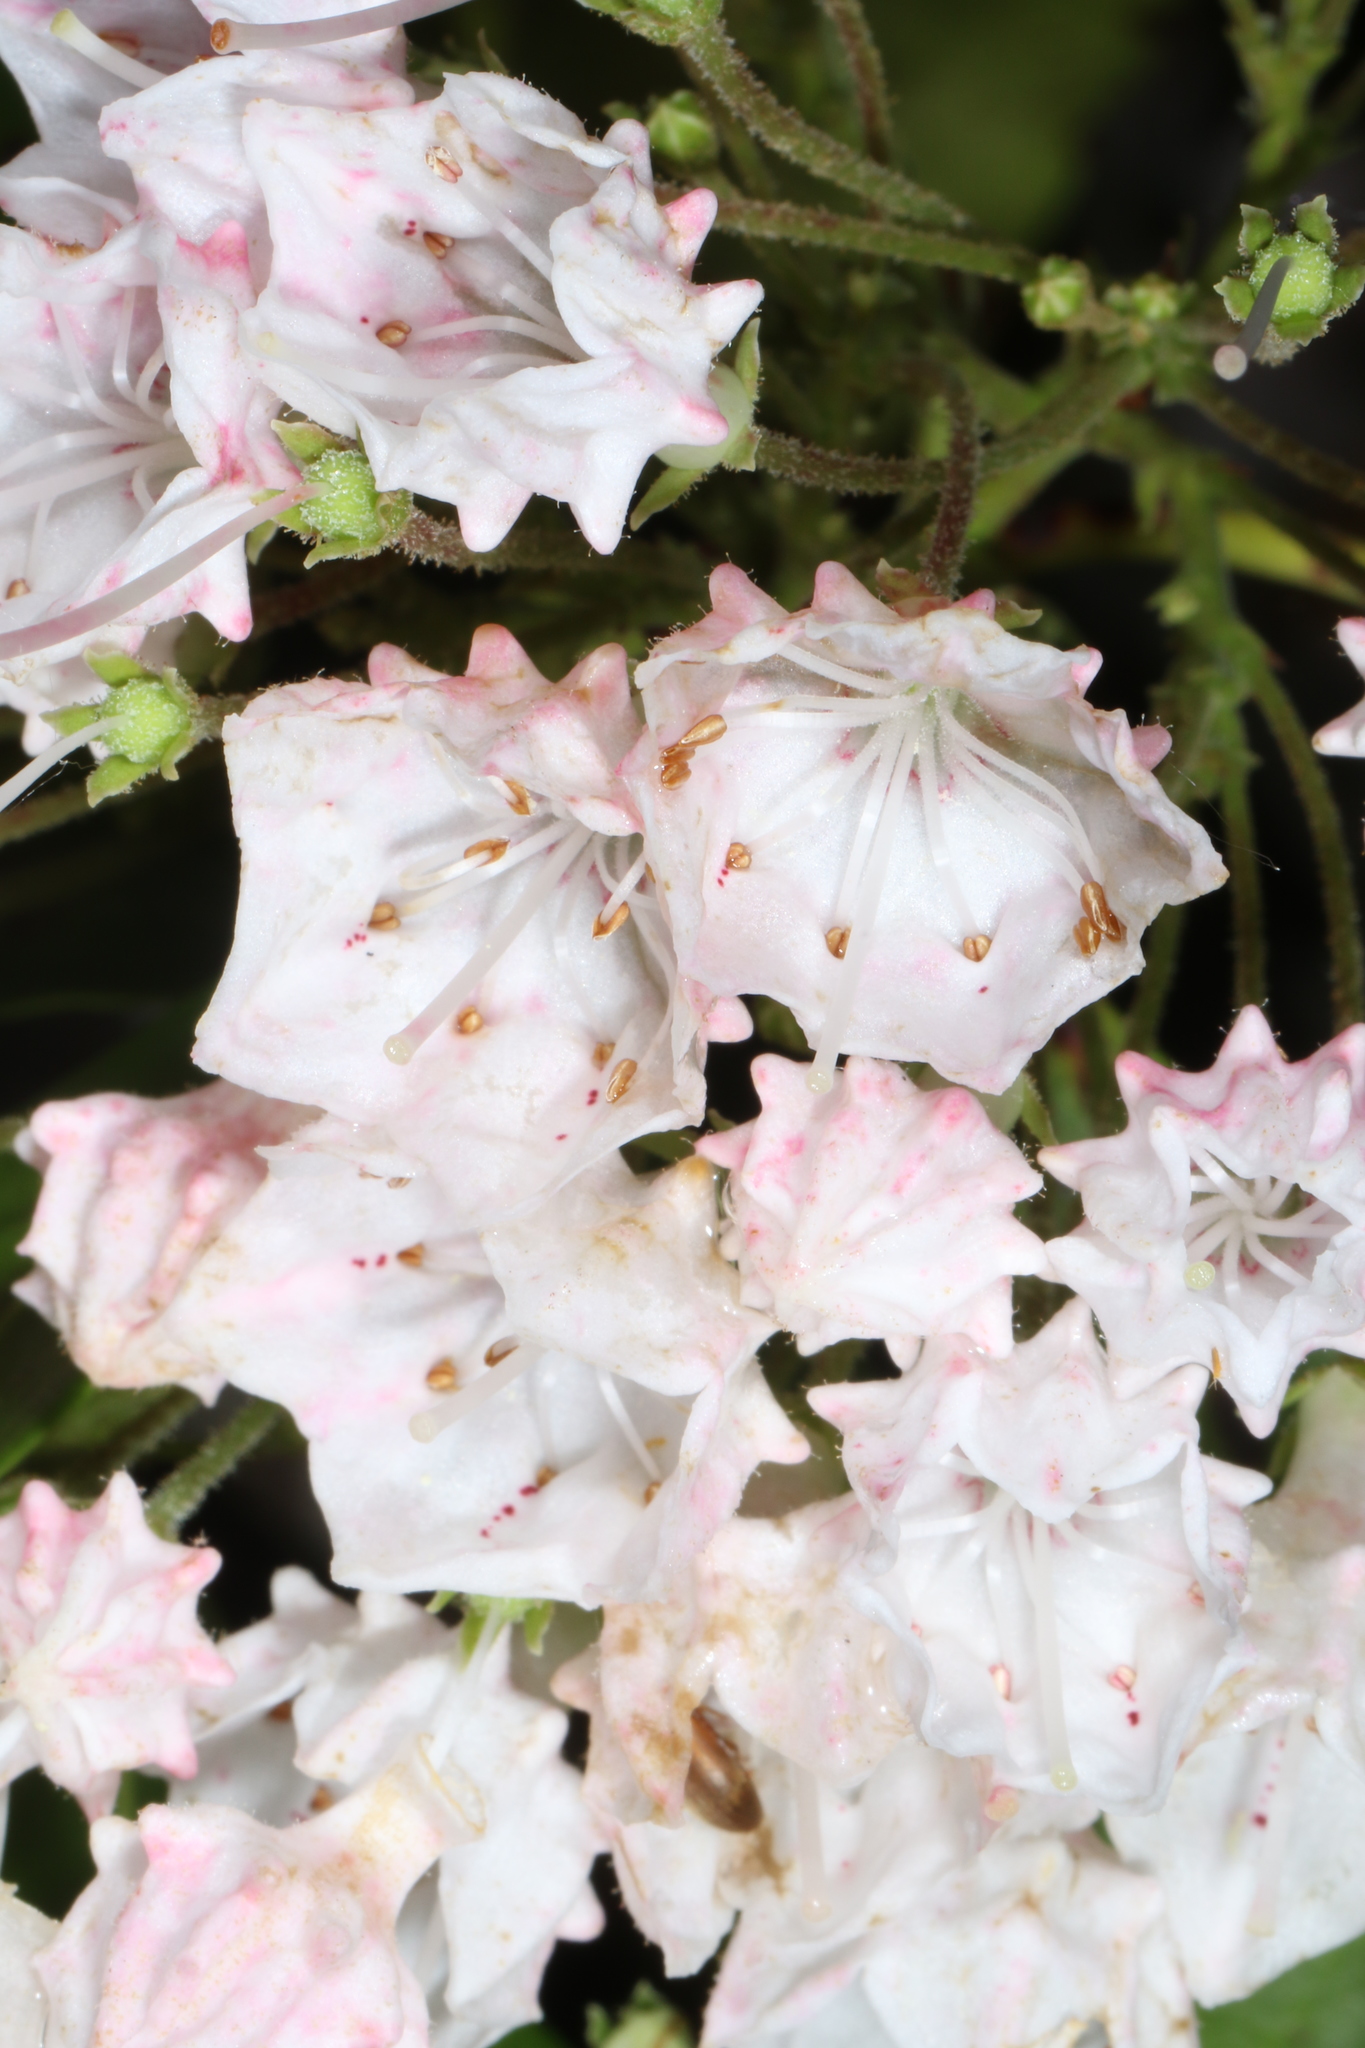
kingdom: Plantae
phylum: Tracheophyta
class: Magnoliopsida
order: Ericales
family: Ericaceae
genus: Kalmia
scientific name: Kalmia latifolia
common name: Mountain-laurel
